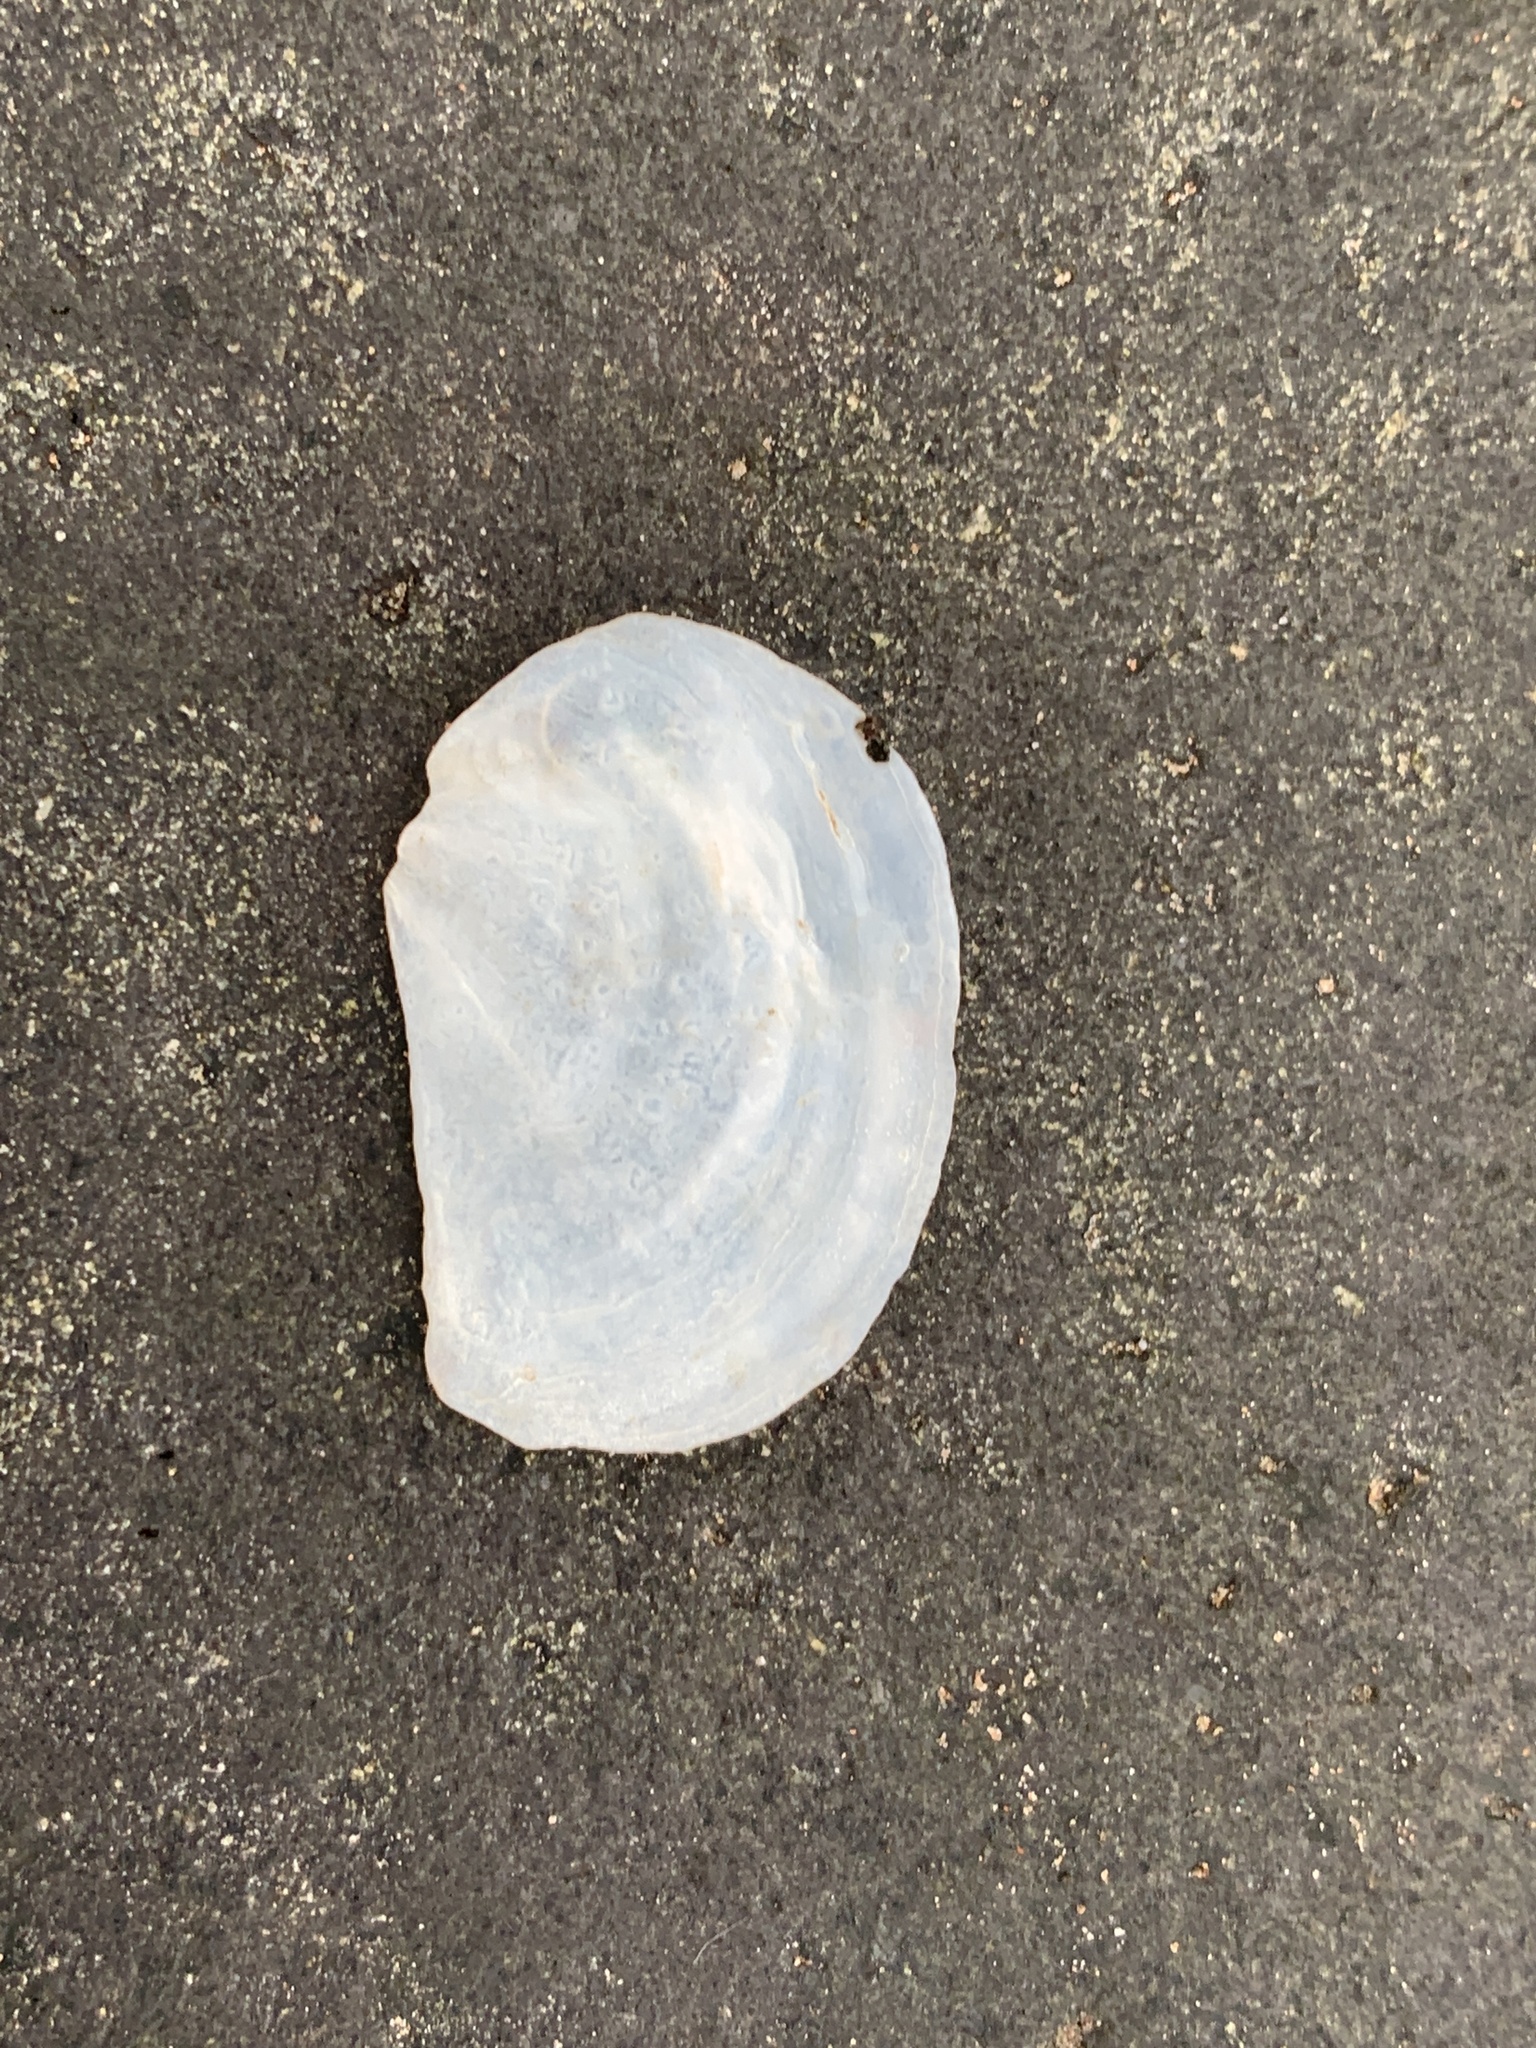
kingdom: Animalia
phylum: Mollusca
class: Bivalvia
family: Pandoridae
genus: Pandora
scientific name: Pandora gouldiana
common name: Rounded pandora
